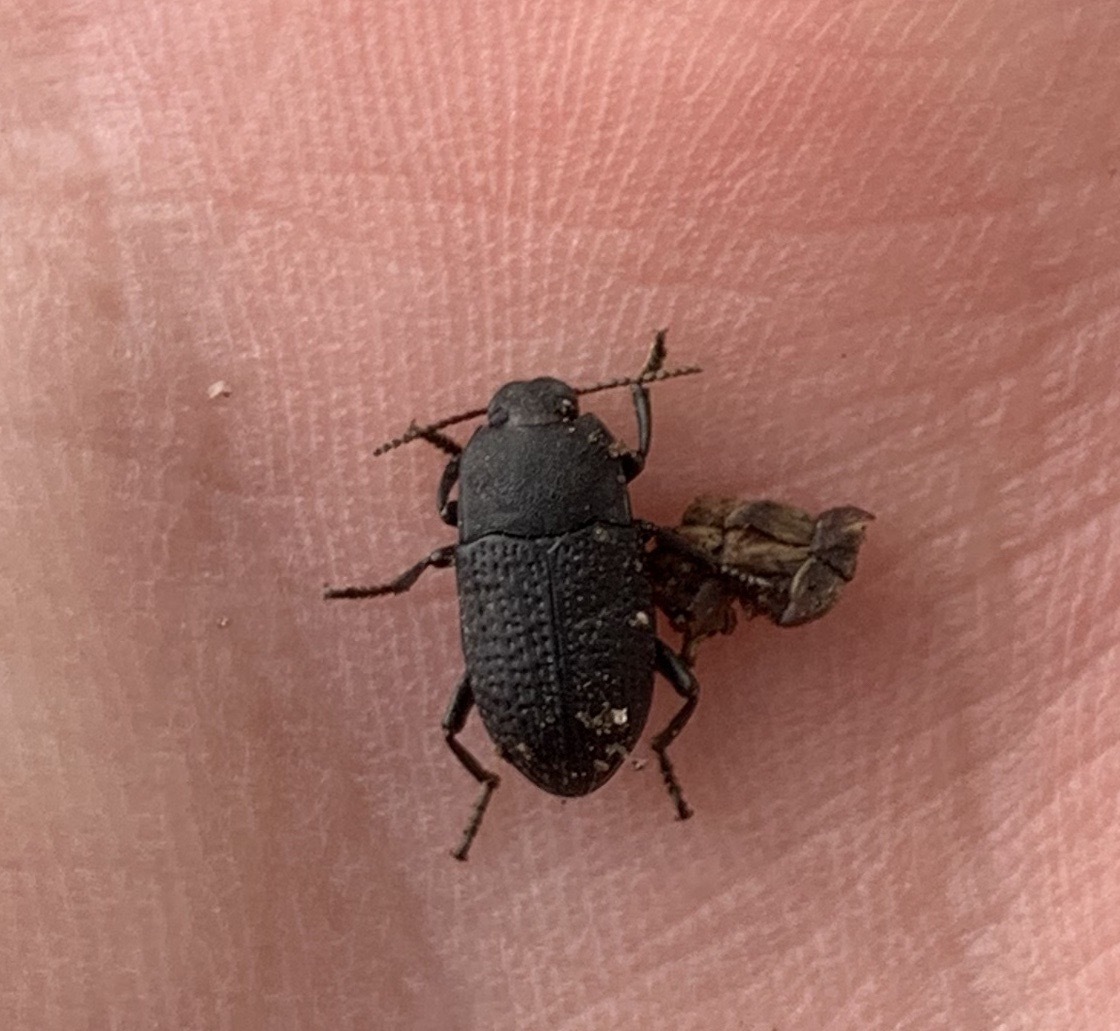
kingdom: Animalia
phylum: Arthropoda
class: Insecta
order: Coleoptera
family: Tenebrionidae
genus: Asiopus
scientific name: Asiopus
